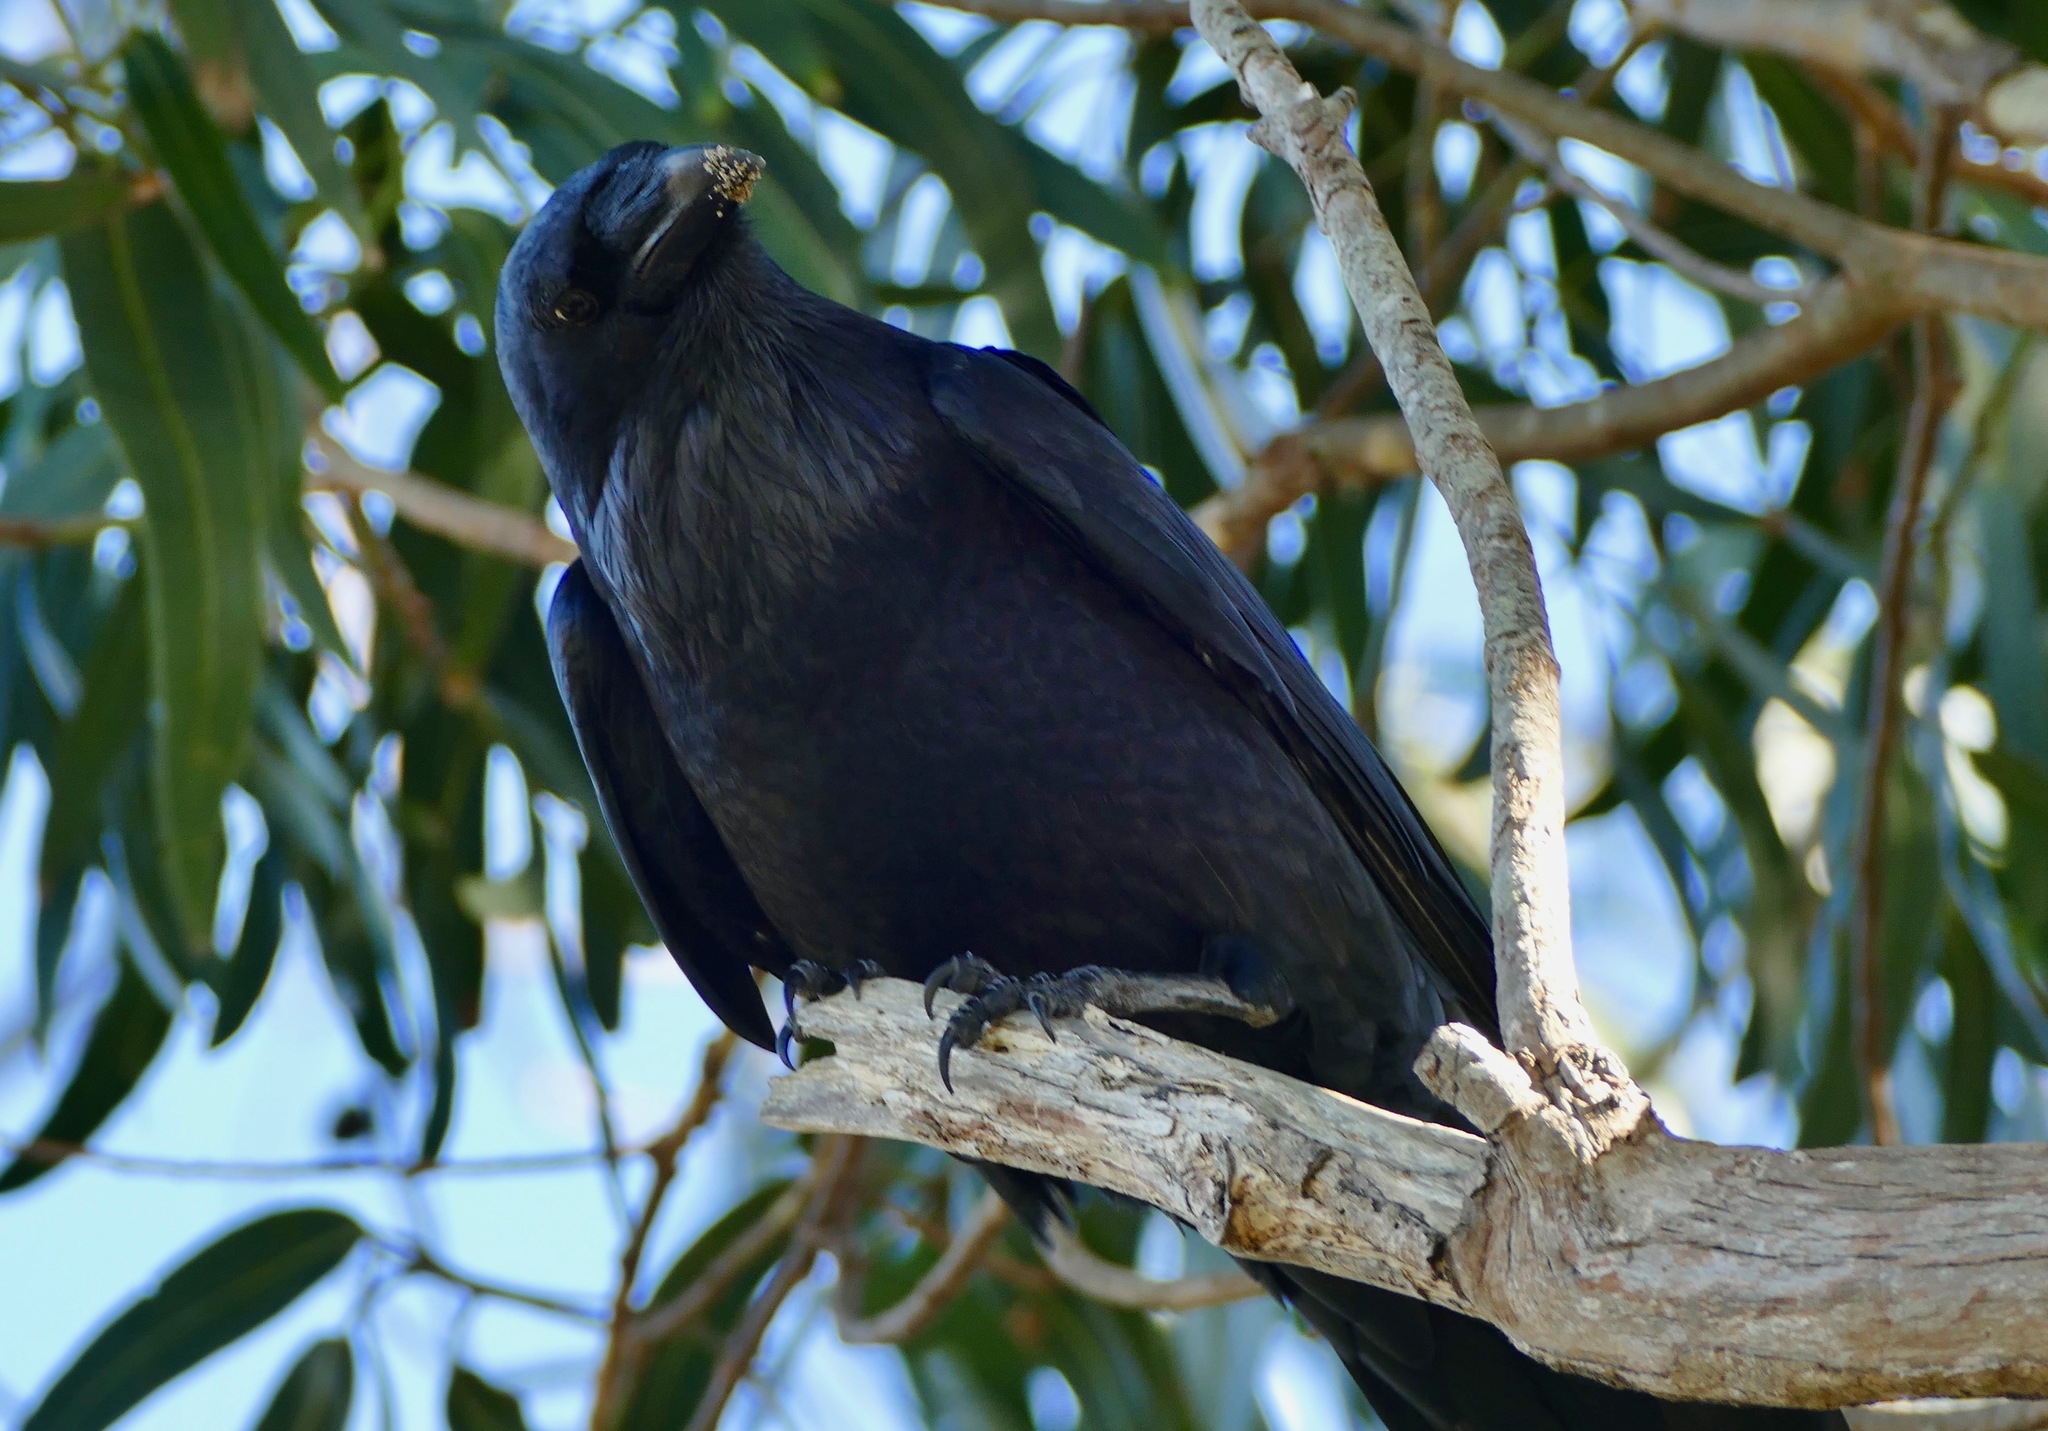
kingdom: Animalia
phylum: Chordata
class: Aves
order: Passeriformes
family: Corvidae
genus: Corvus
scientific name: Corvus corax
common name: Common raven
